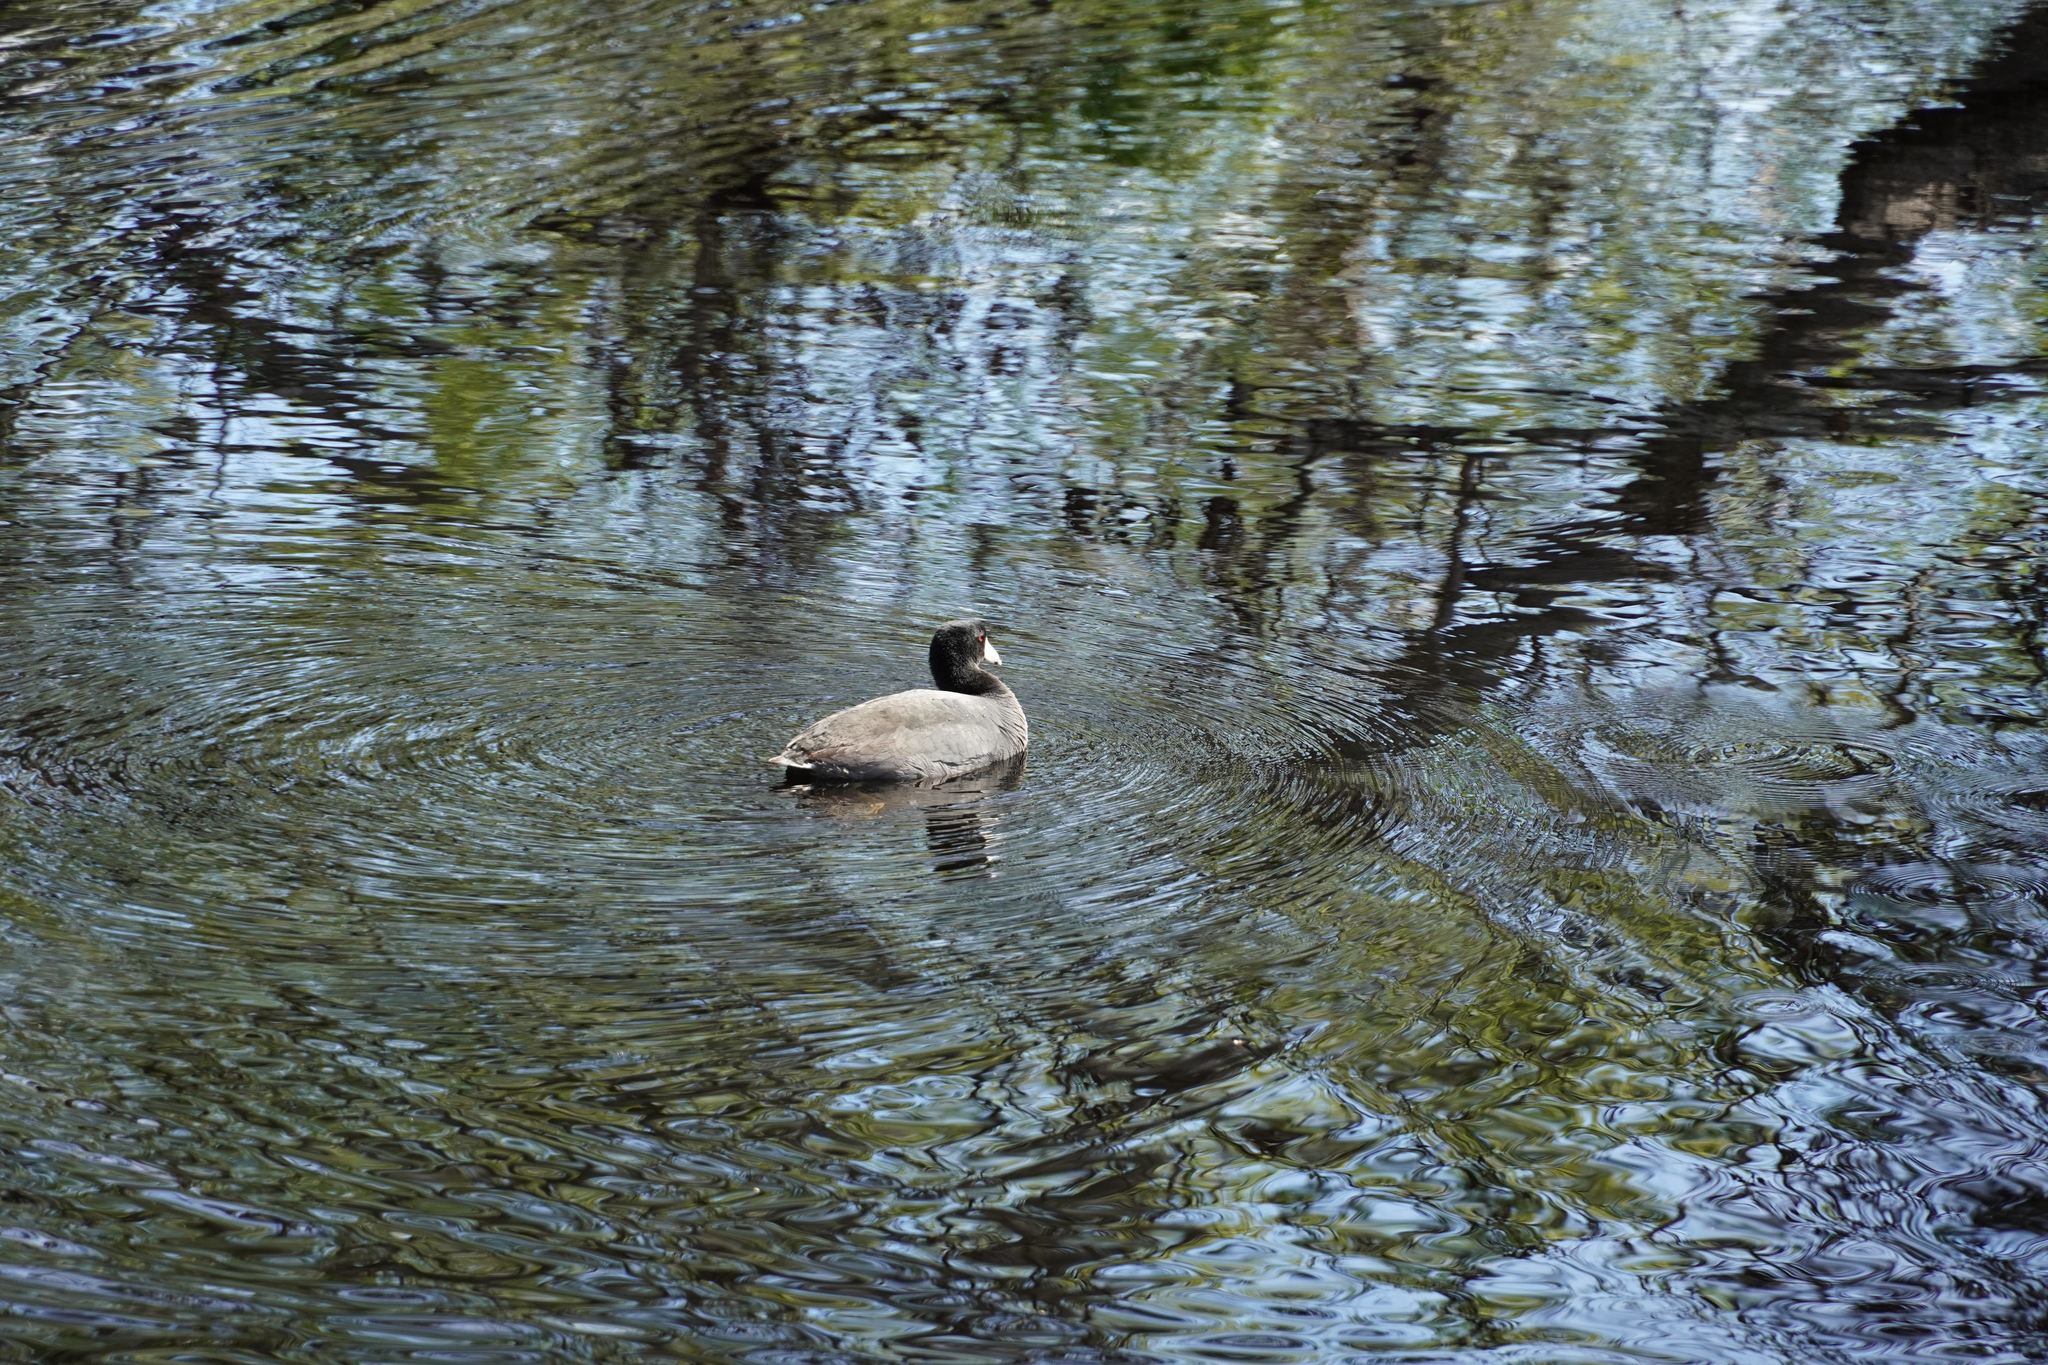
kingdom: Animalia
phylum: Chordata
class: Aves
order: Gruiformes
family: Rallidae
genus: Fulica
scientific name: Fulica americana
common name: American coot
